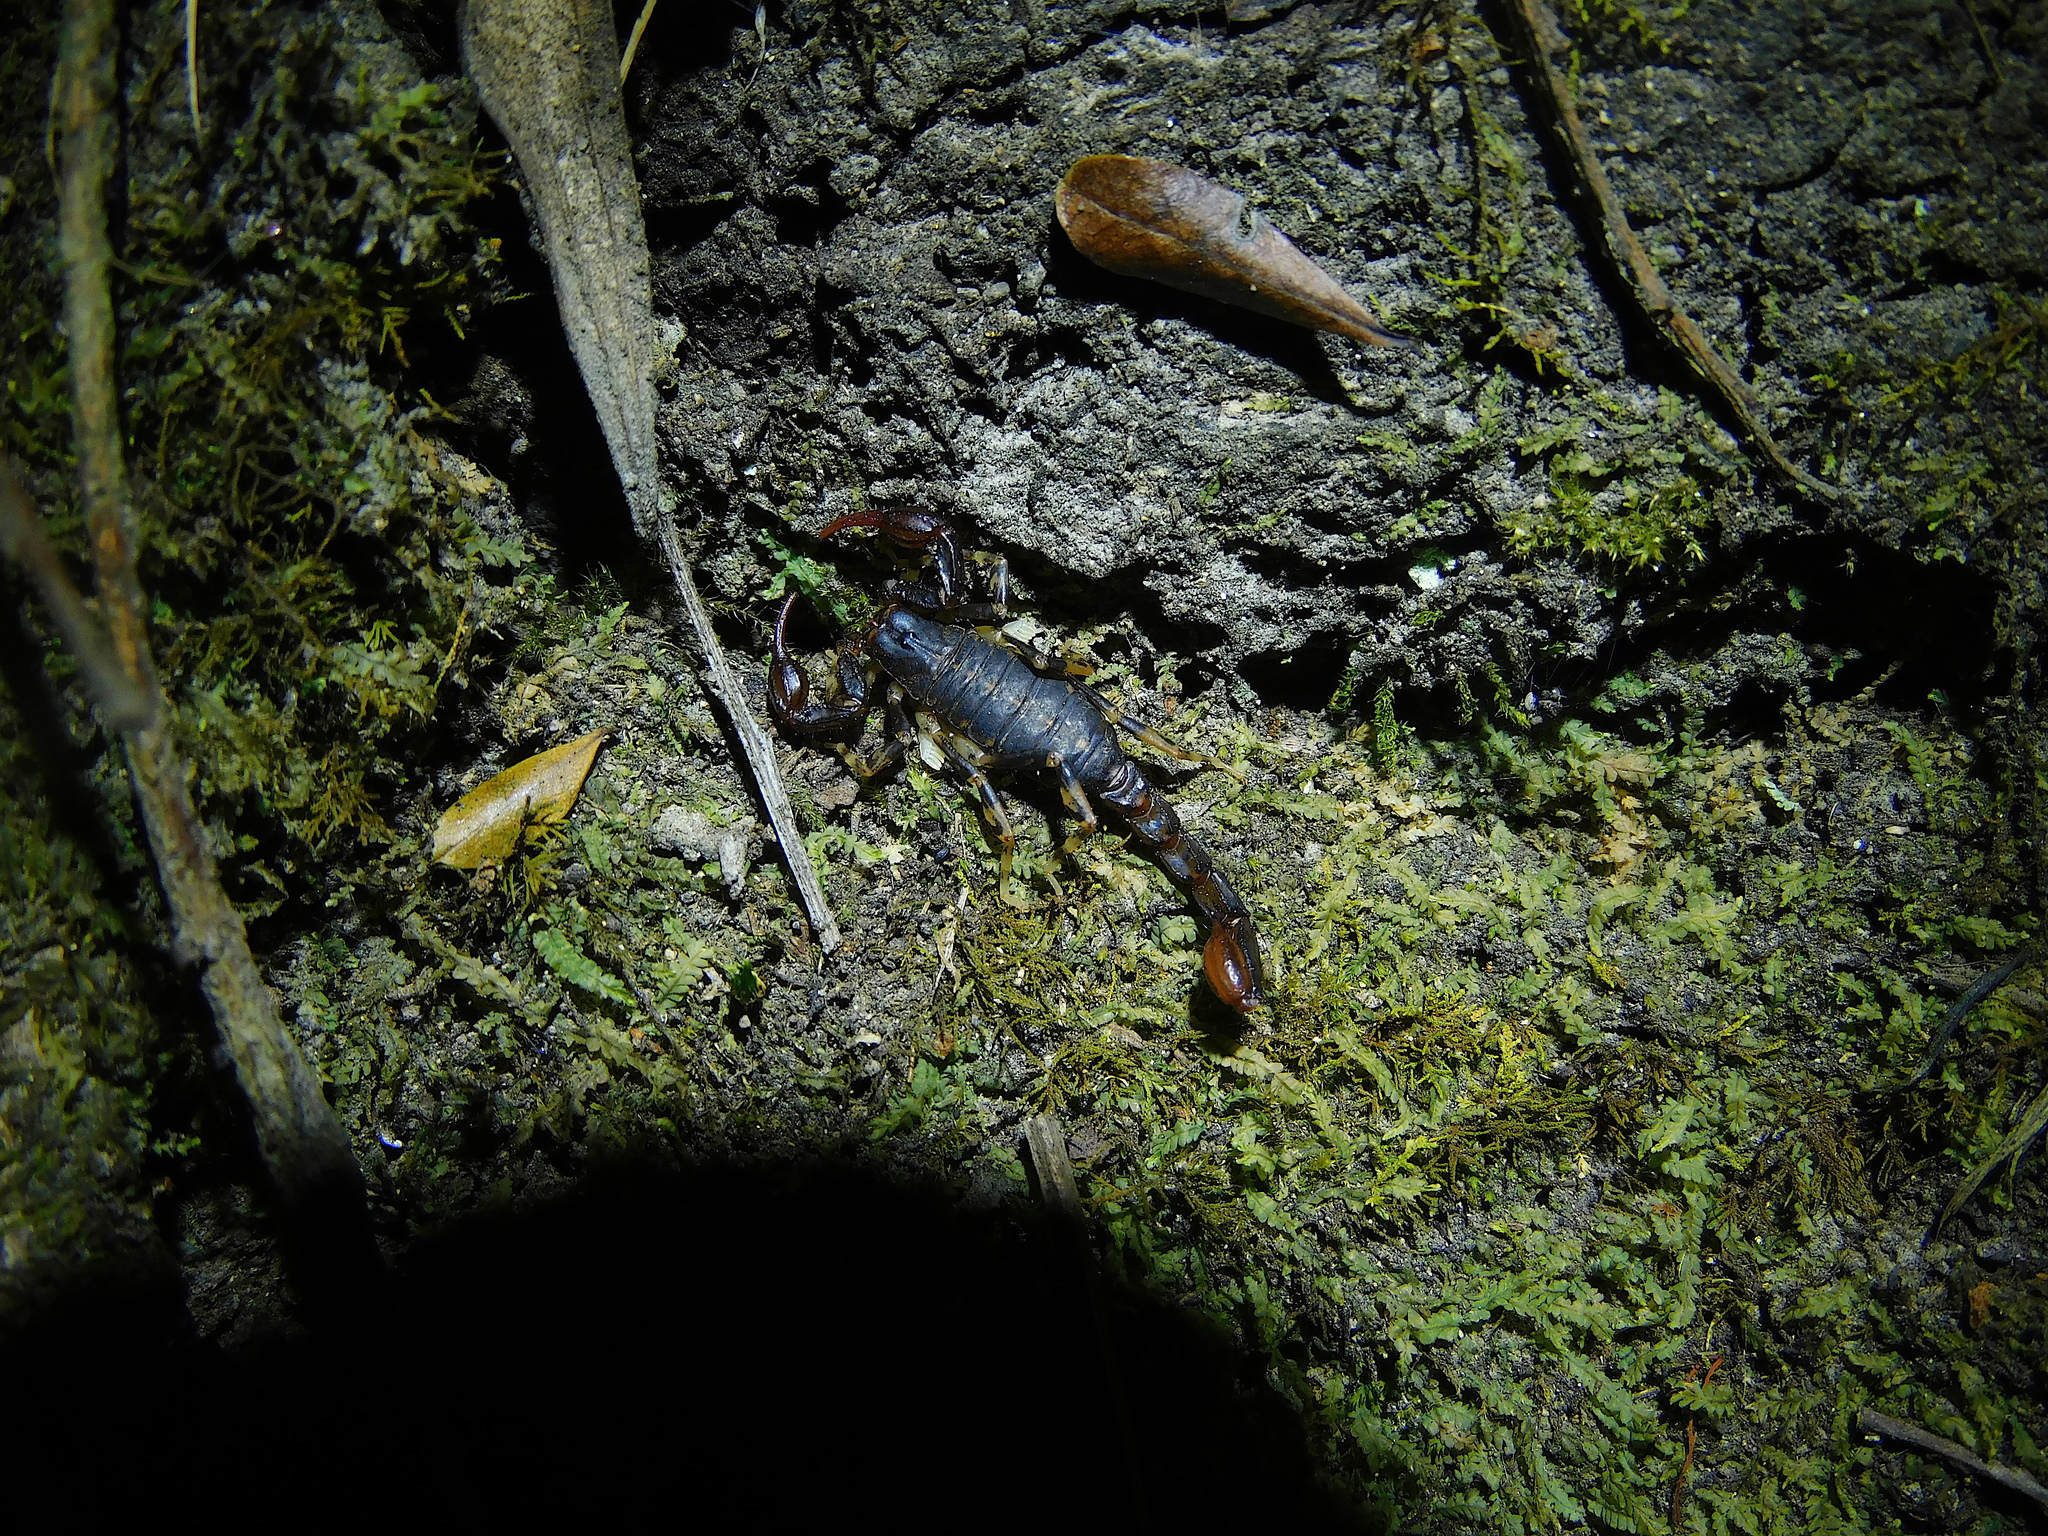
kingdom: Animalia
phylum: Arthropoda
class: Arachnida
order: Scorpiones
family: Bothriuridae
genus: Cercophonius
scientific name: Cercophonius squama
